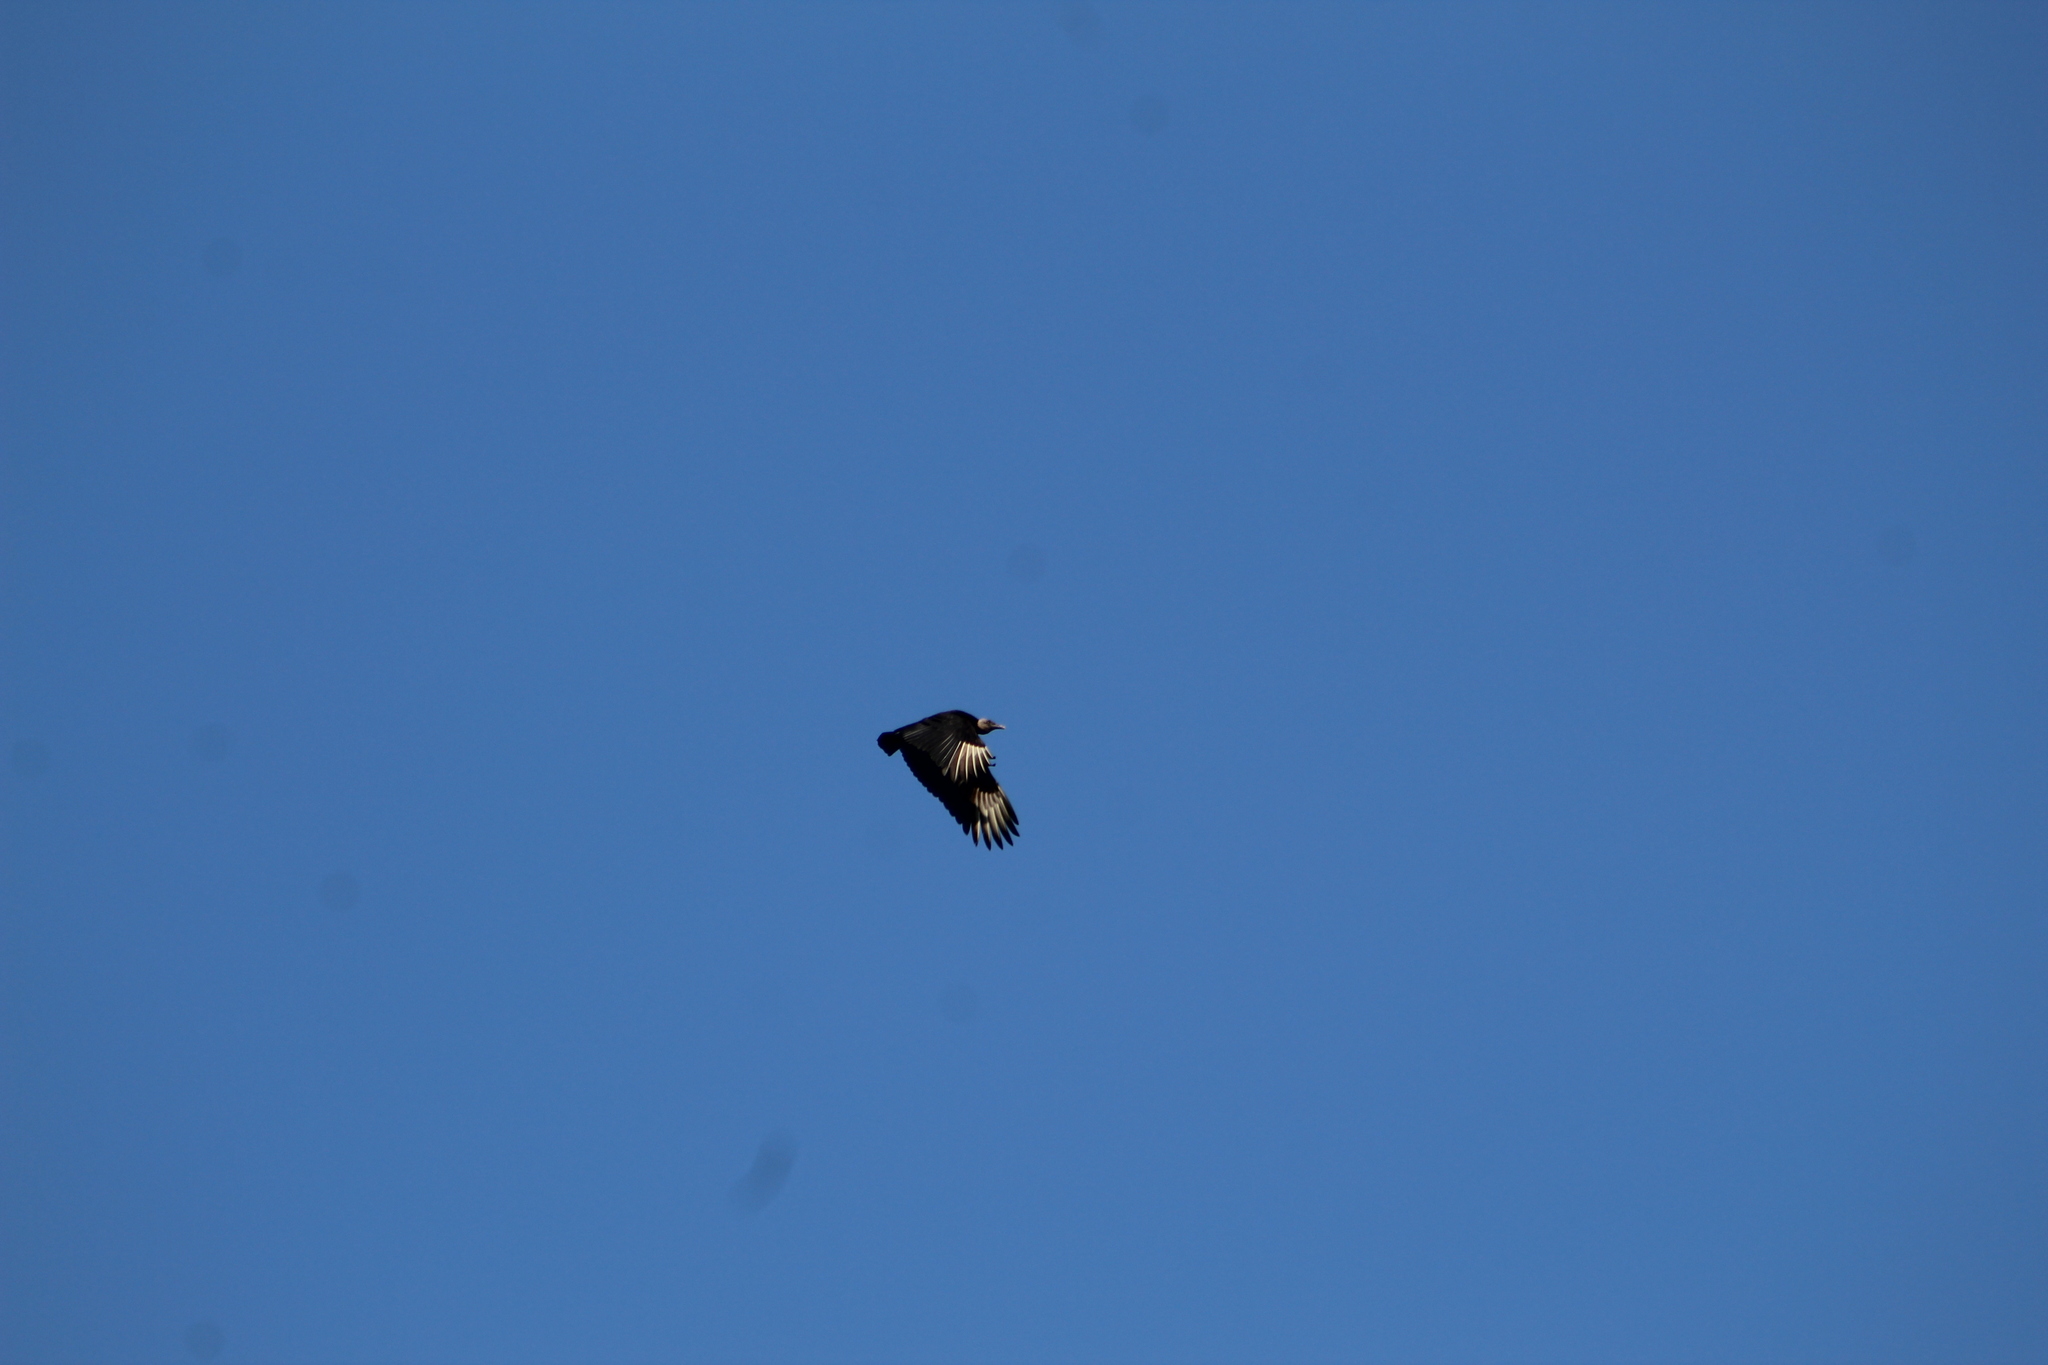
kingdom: Animalia
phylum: Chordata
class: Aves
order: Accipitriformes
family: Cathartidae
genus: Coragyps
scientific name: Coragyps atratus
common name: Black vulture
